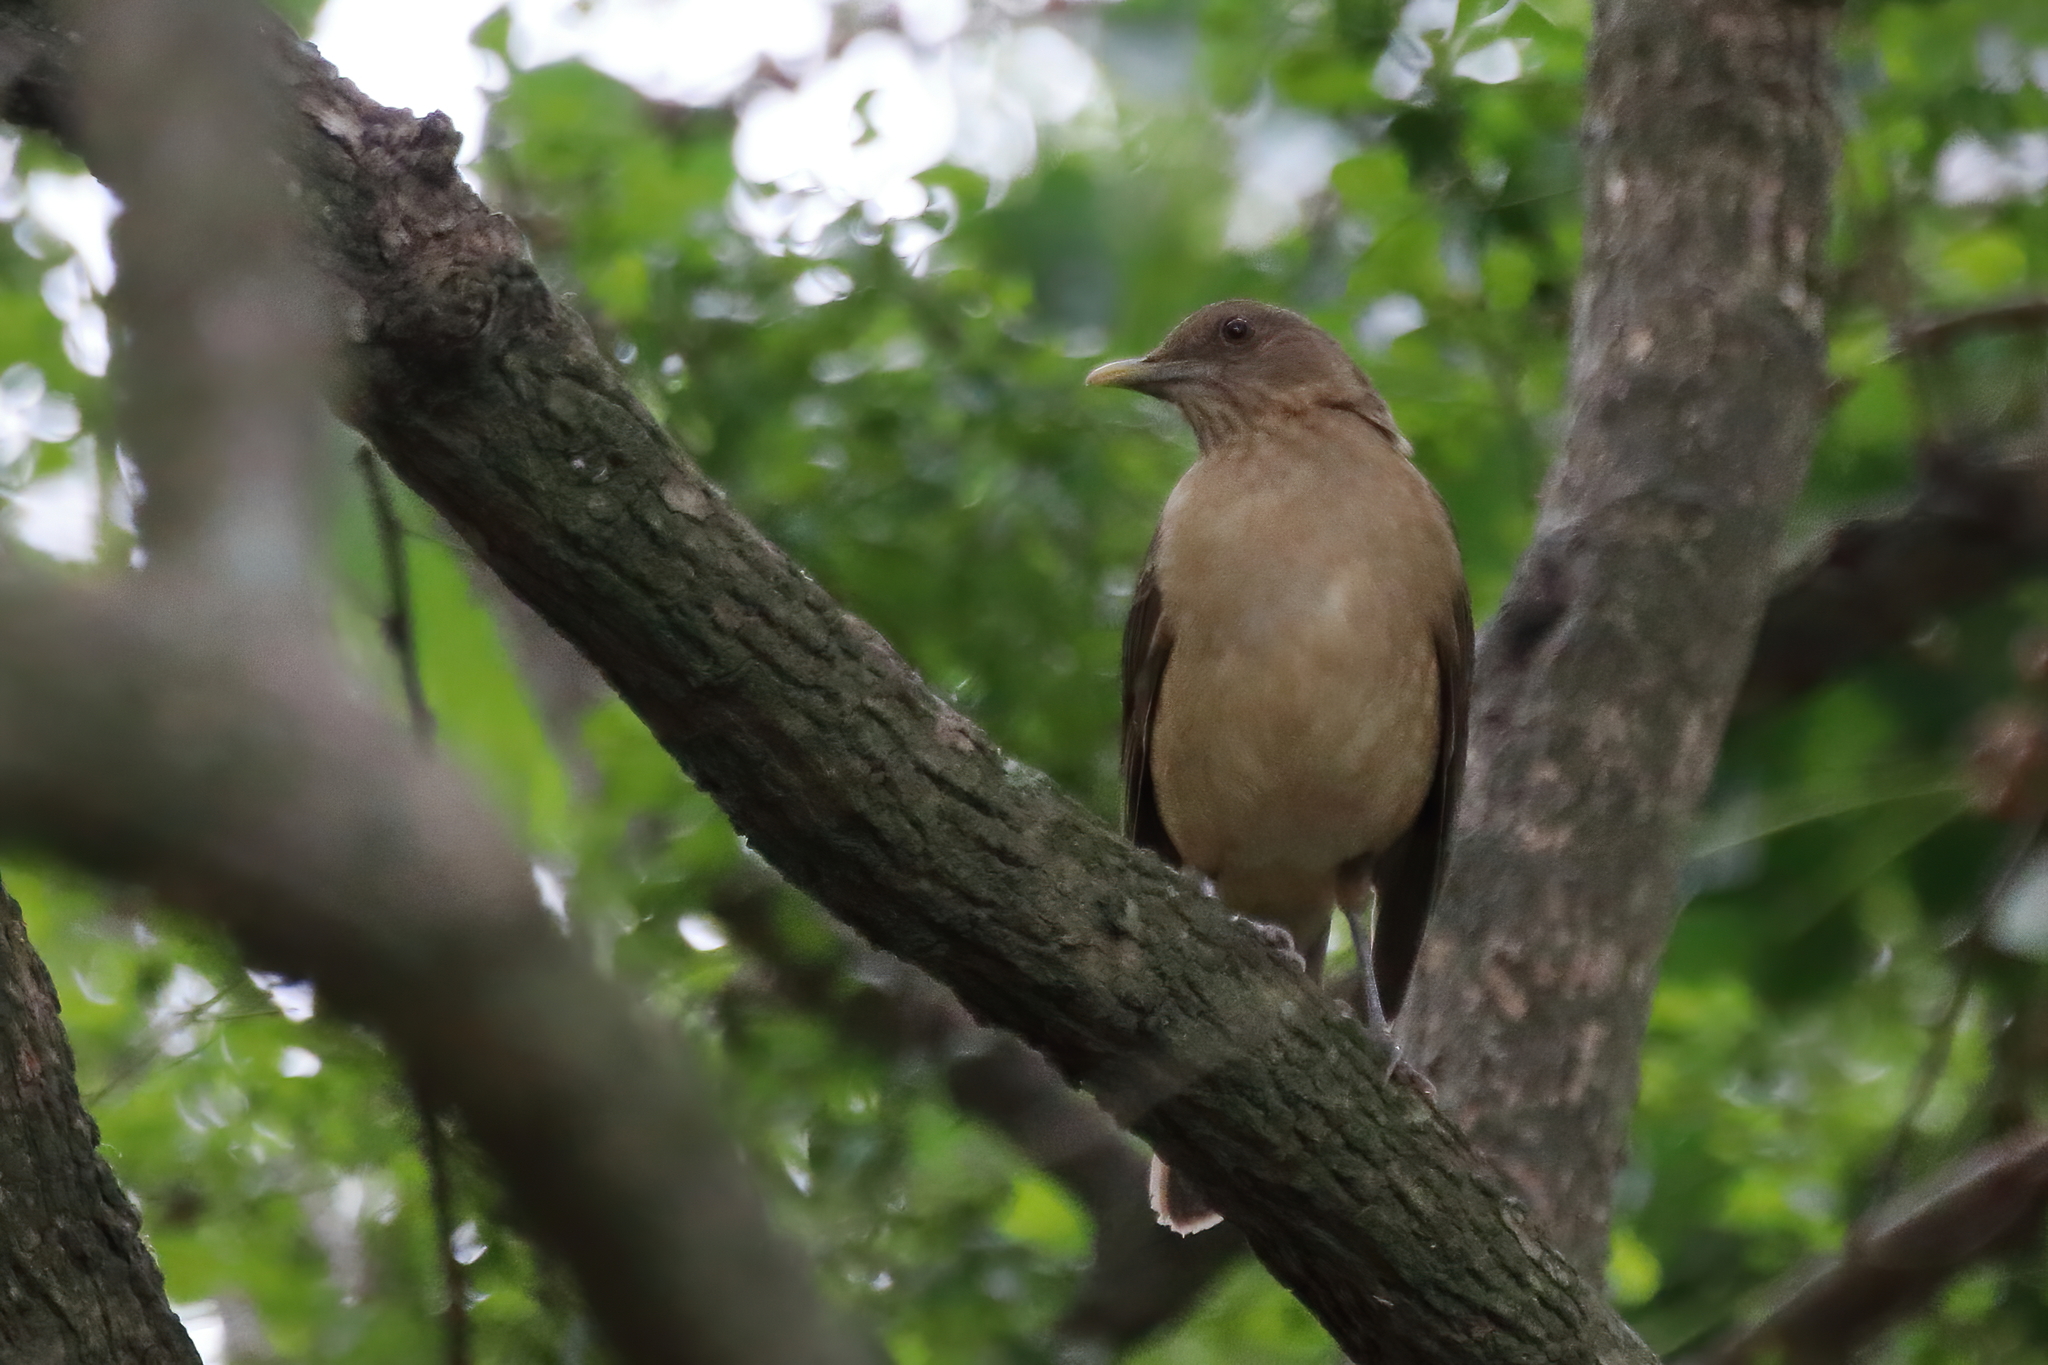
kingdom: Animalia
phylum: Chordata
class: Aves
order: Passeriformes
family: Turdidae
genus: Turdus
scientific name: Turdus grayi
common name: Clay-colored thrush
